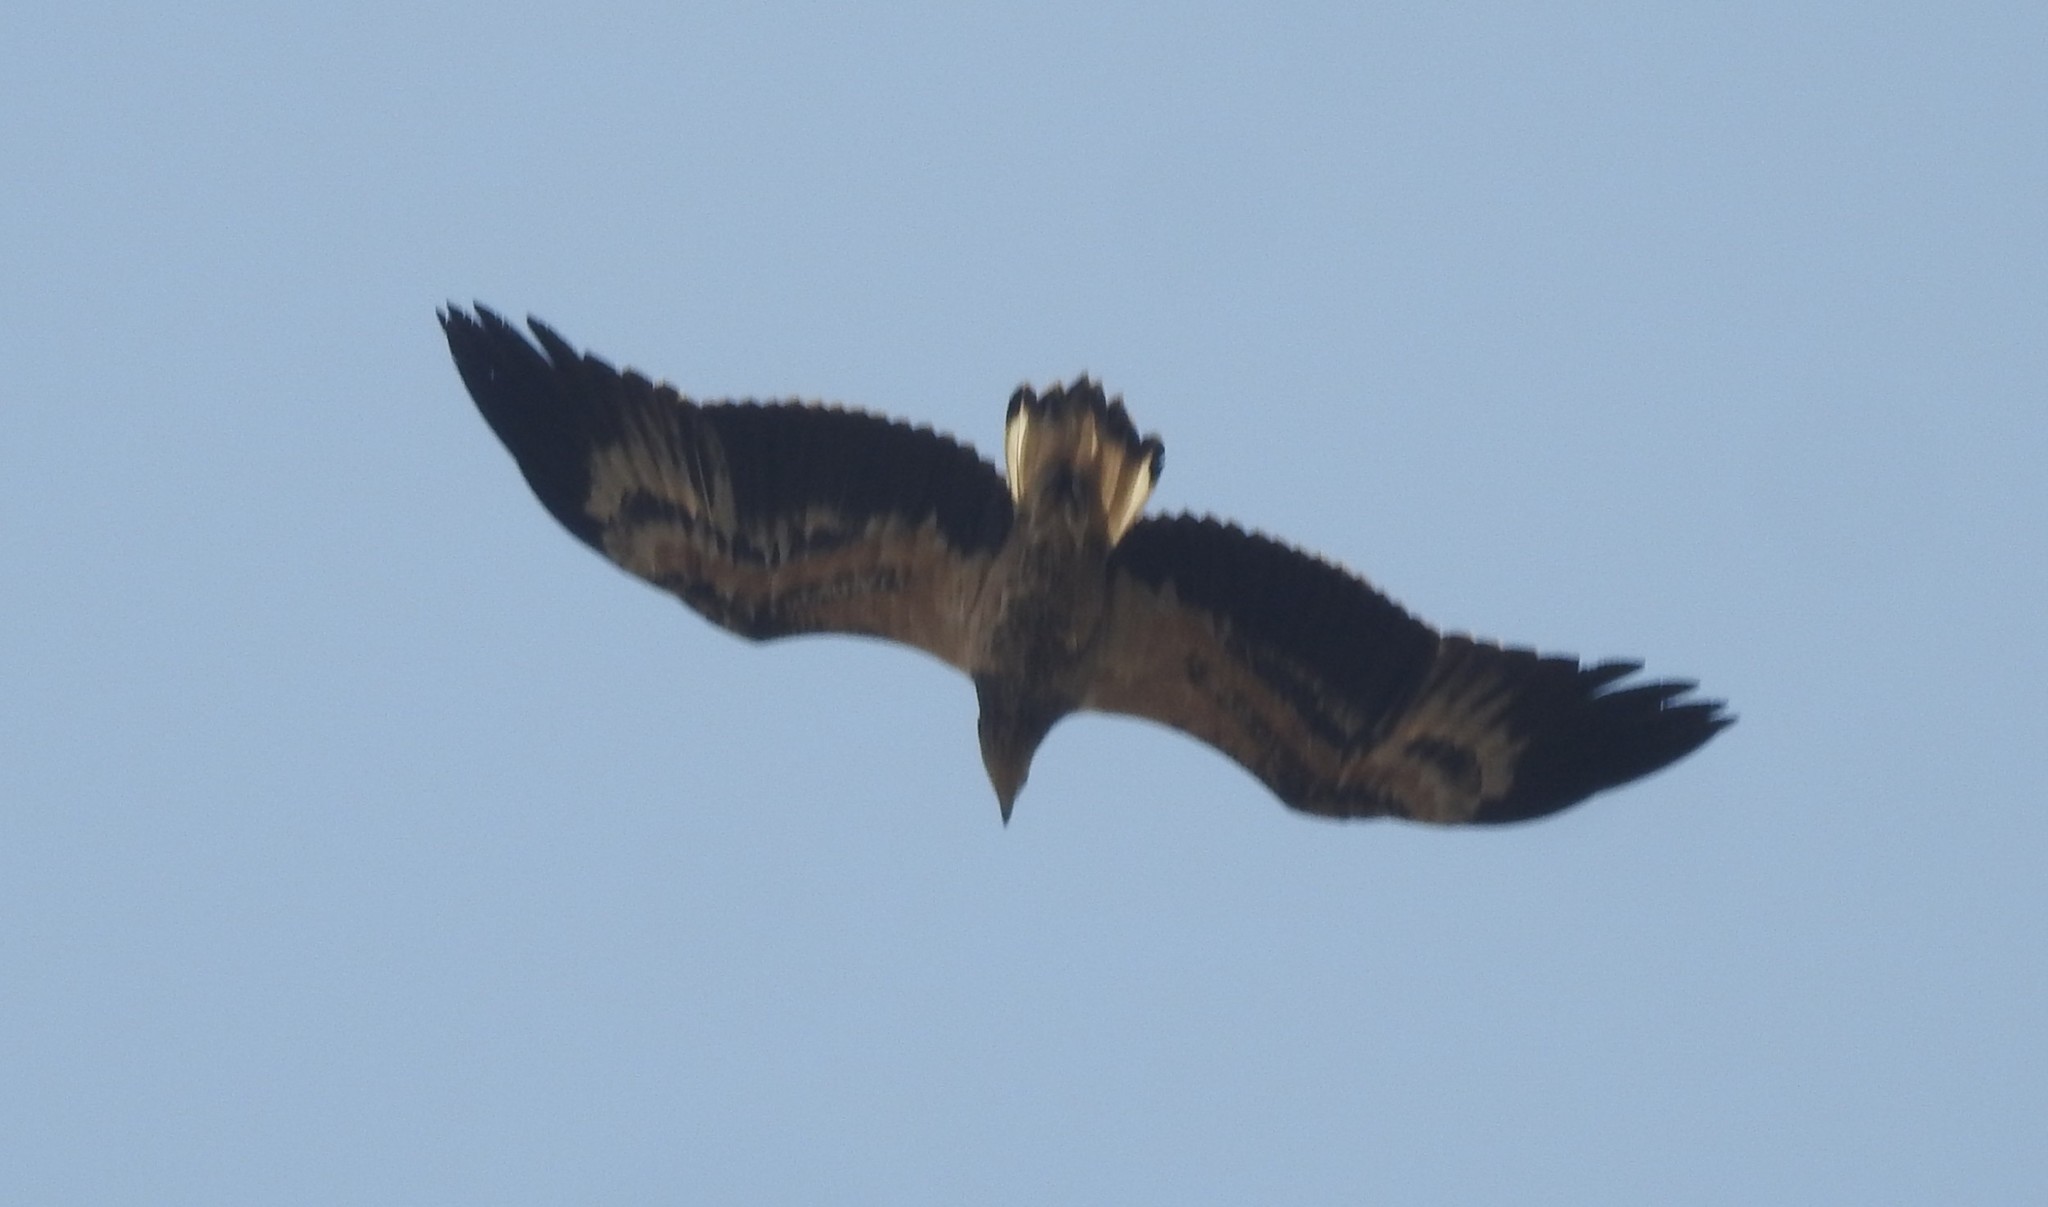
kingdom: Animalia
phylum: Chordata
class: Aves
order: Accipitriformes
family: Accipitridae
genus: Haliaeetus
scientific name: Haliaeetus leucogaster
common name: White-bellied sea eagle
